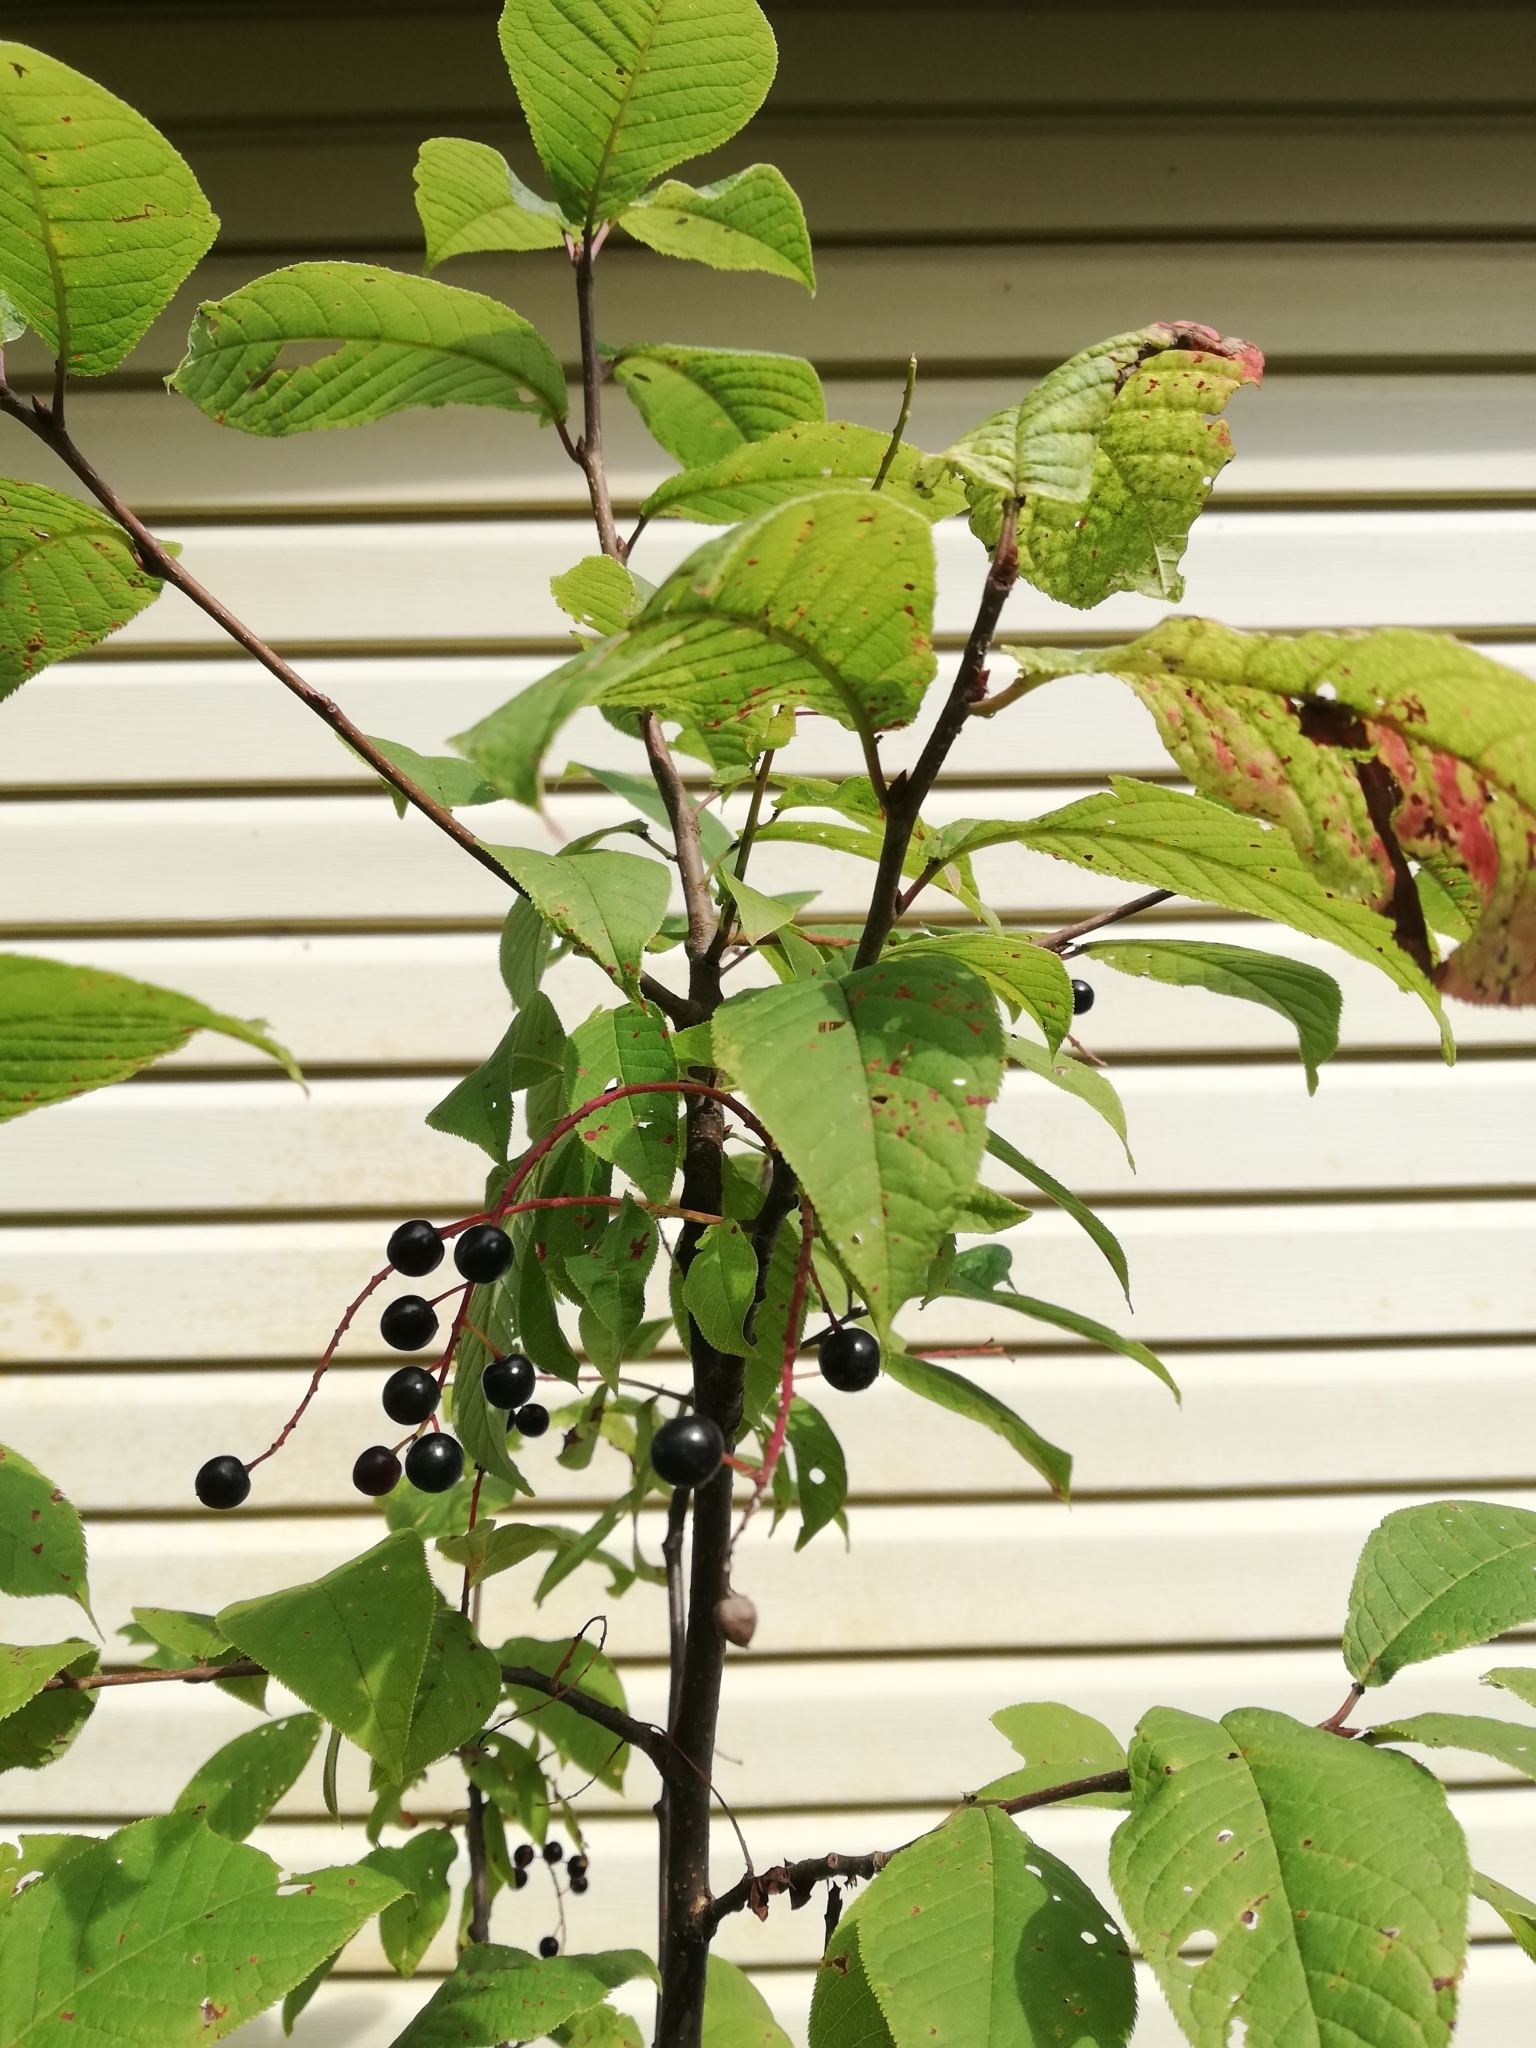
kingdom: Plantae
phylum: Tracheophyta
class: Magnoliopsida
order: Rosales
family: Rosaceae
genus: Prunus
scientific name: Prunus padus
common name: Bird cherry
